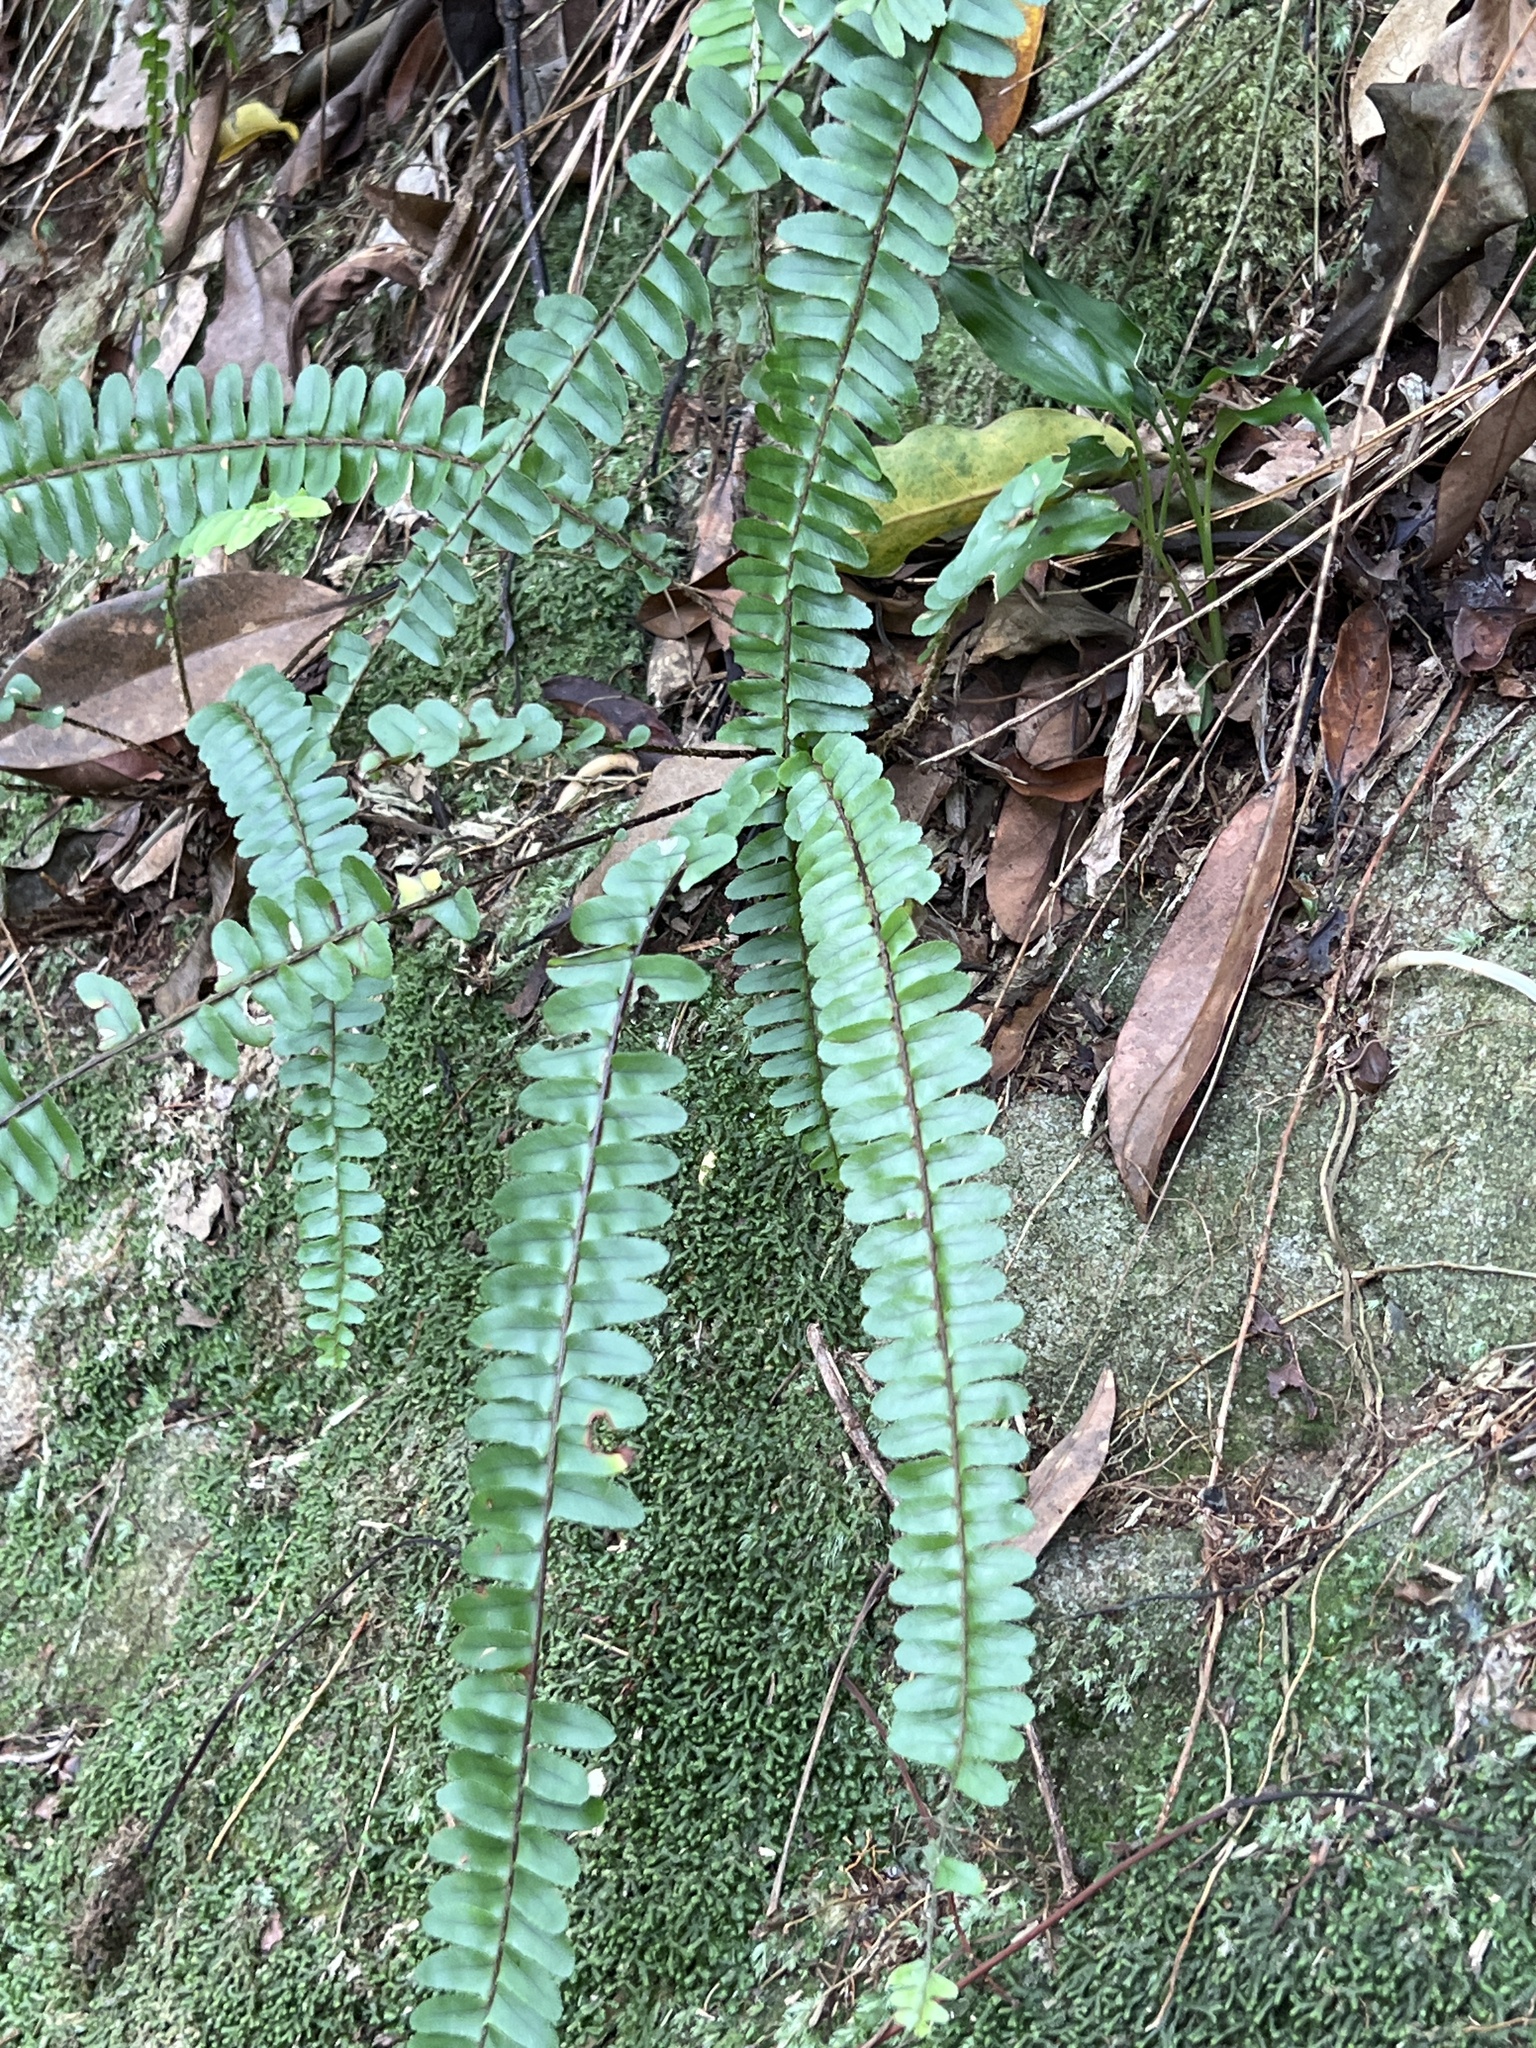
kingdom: Plantae
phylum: Tracheophyta
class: Polypodiopsida
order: Polypodiales
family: Nephrolepidaceae
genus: Nephrolepis
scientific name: Nephrolepis cordifolia
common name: Narrow swordfern
